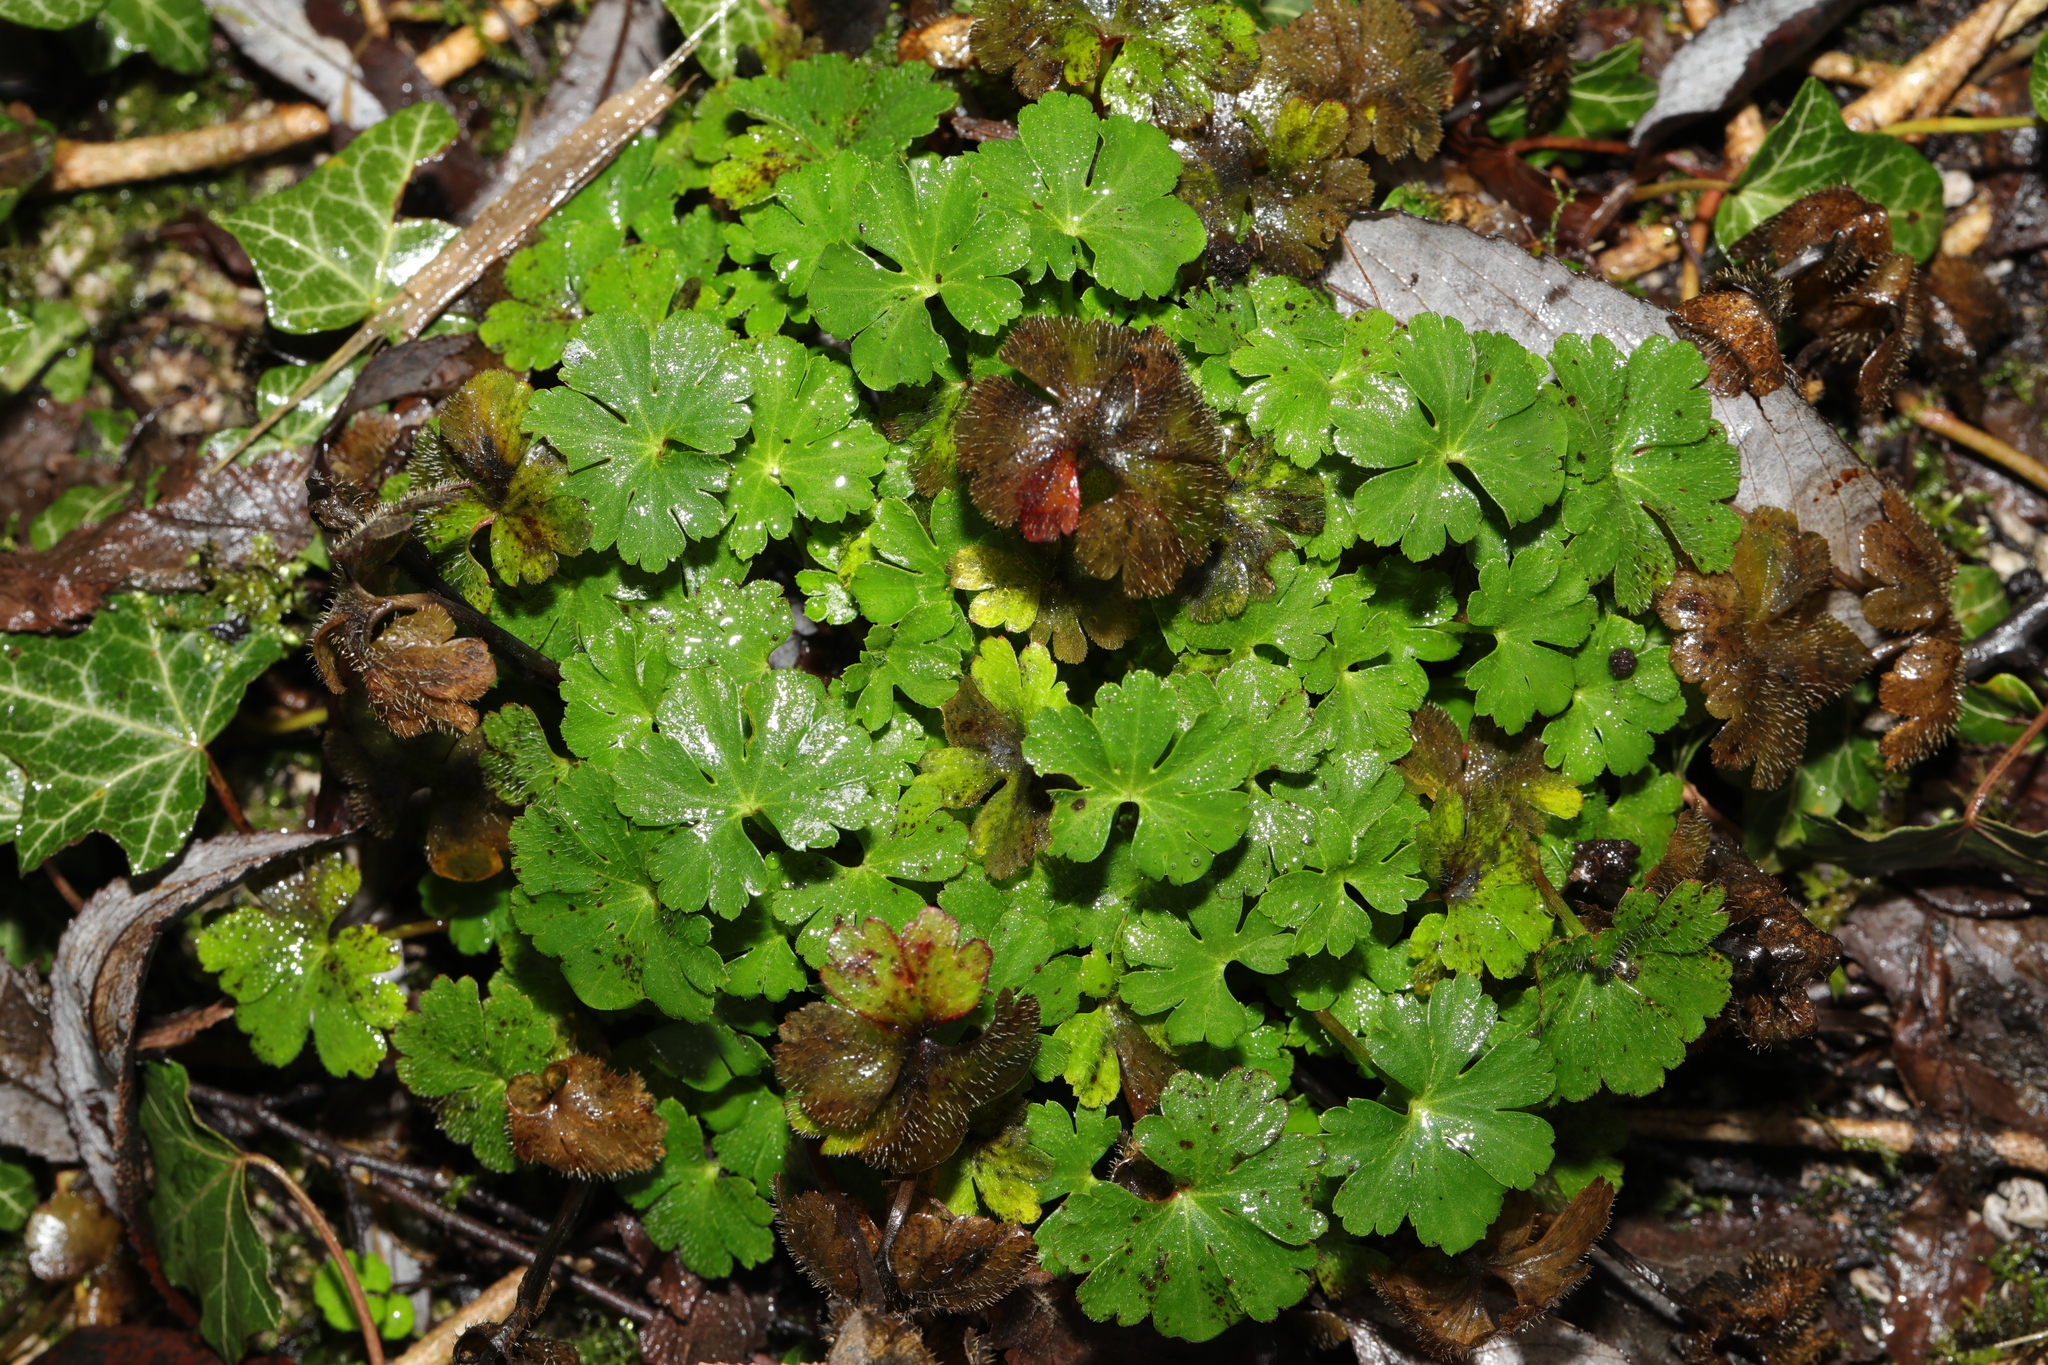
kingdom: Plantae
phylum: Tracheophyta
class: Magnoliopsida
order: Geraniales
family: Geraniaceae
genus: Geranium
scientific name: Geranium lucidum
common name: Shining crane's-bill
